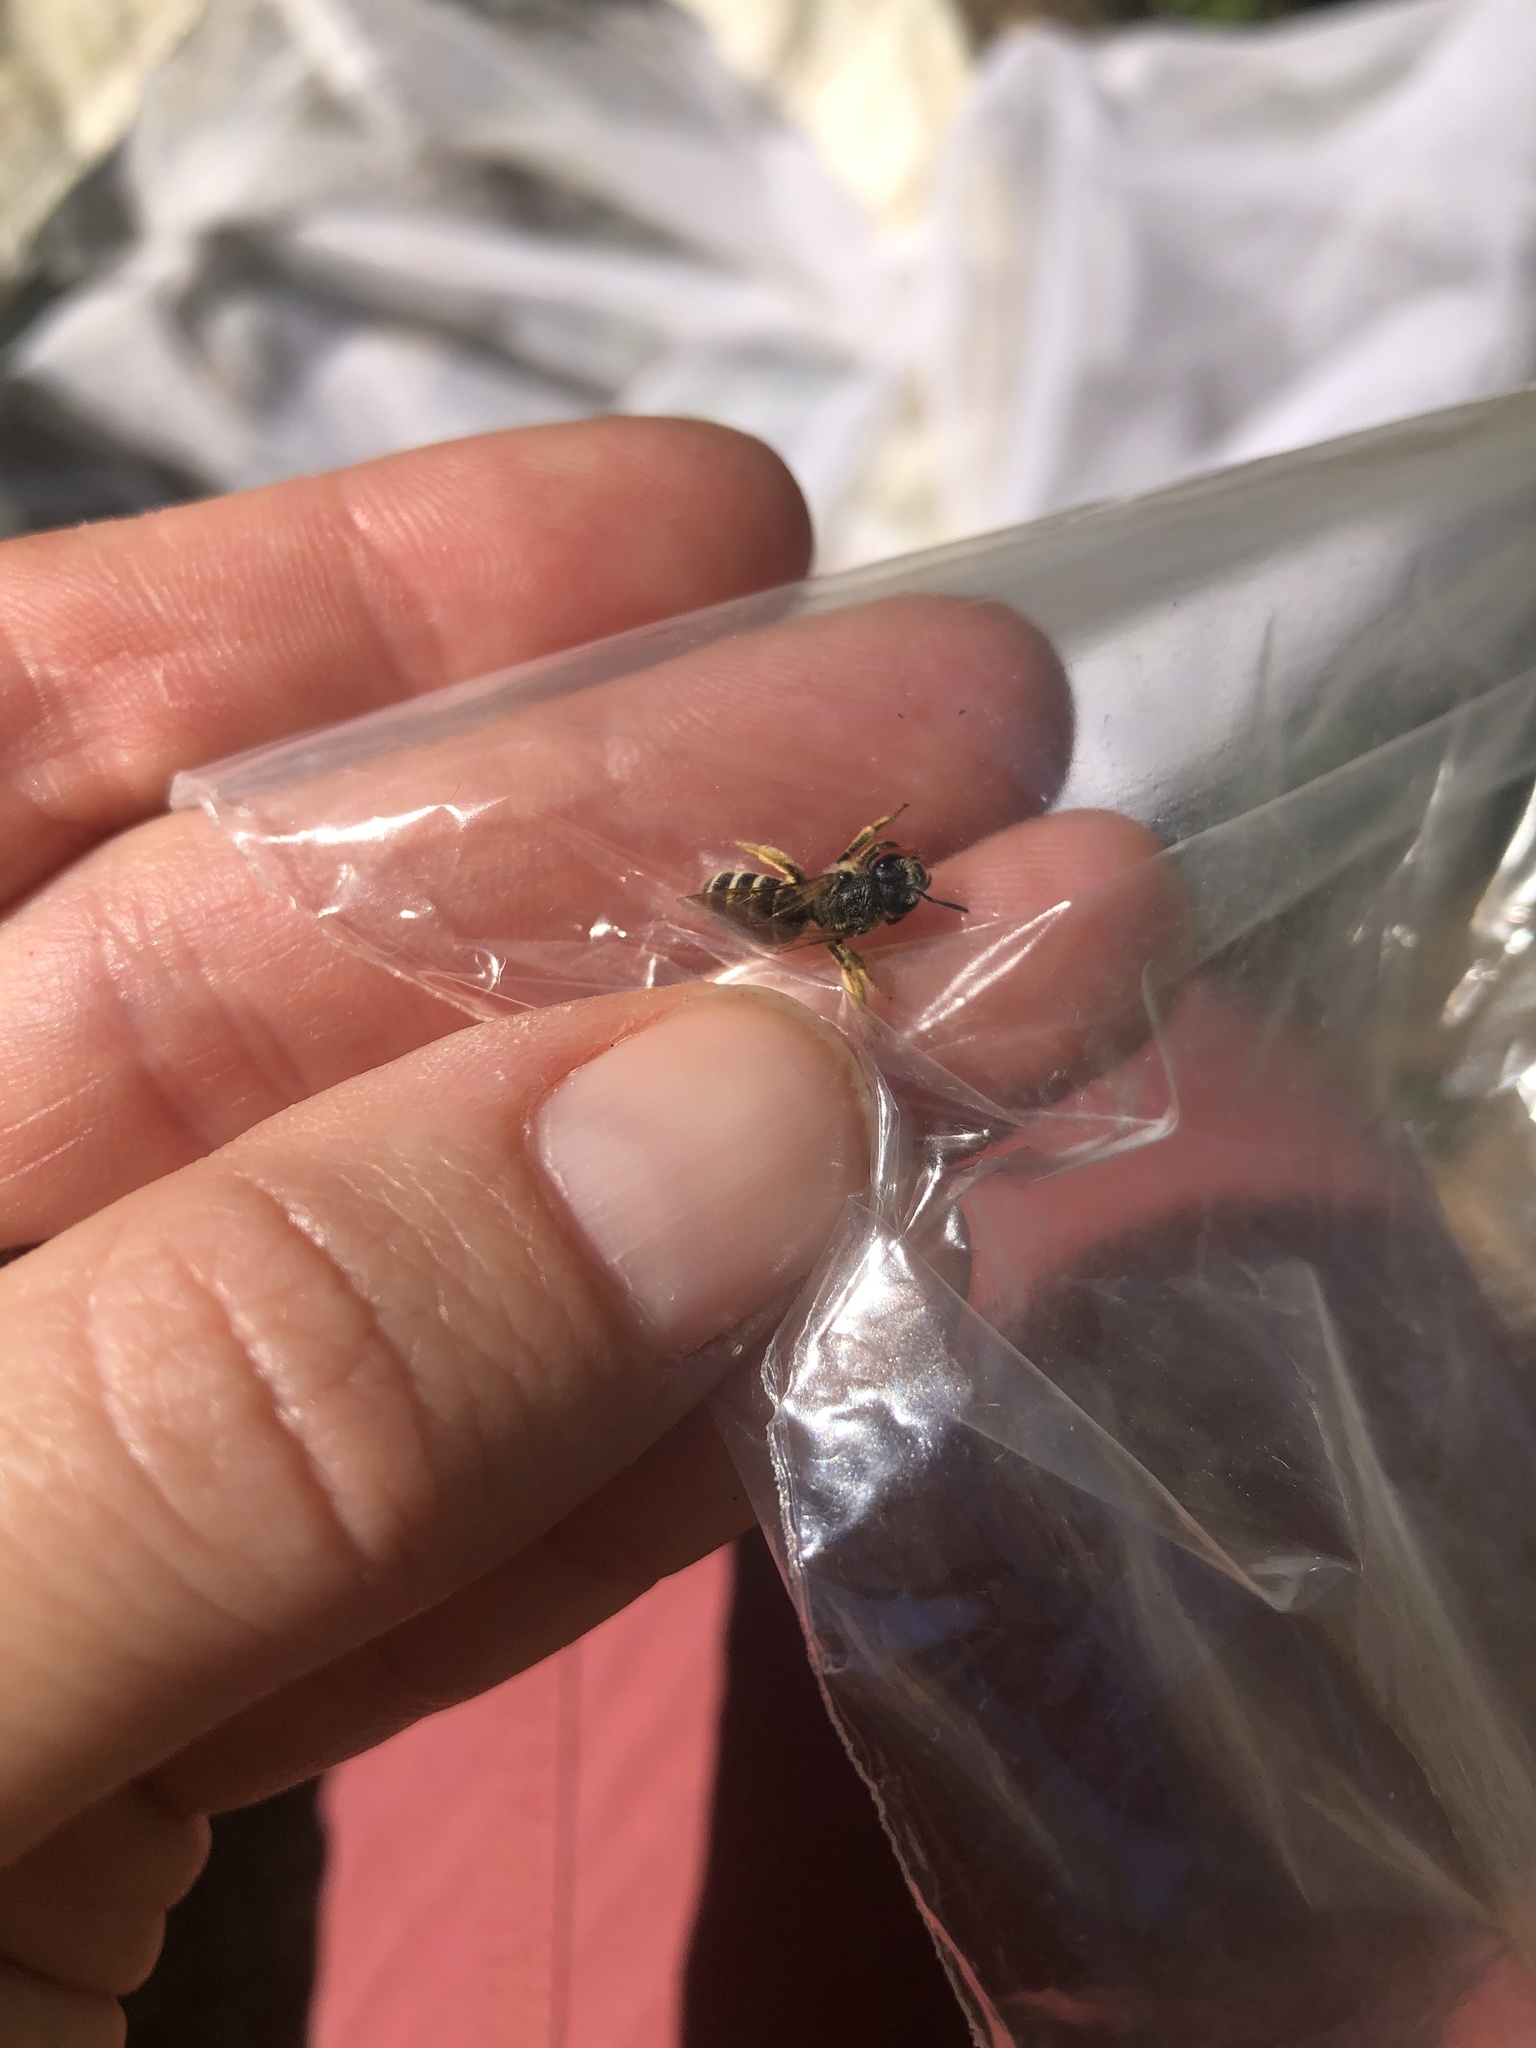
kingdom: Animalia
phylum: Arthropoda
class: Insecta
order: Hymenoptera
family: Halictidae
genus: Halictus
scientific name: Halictus rubicundus
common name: Orange-legged furrow bee
